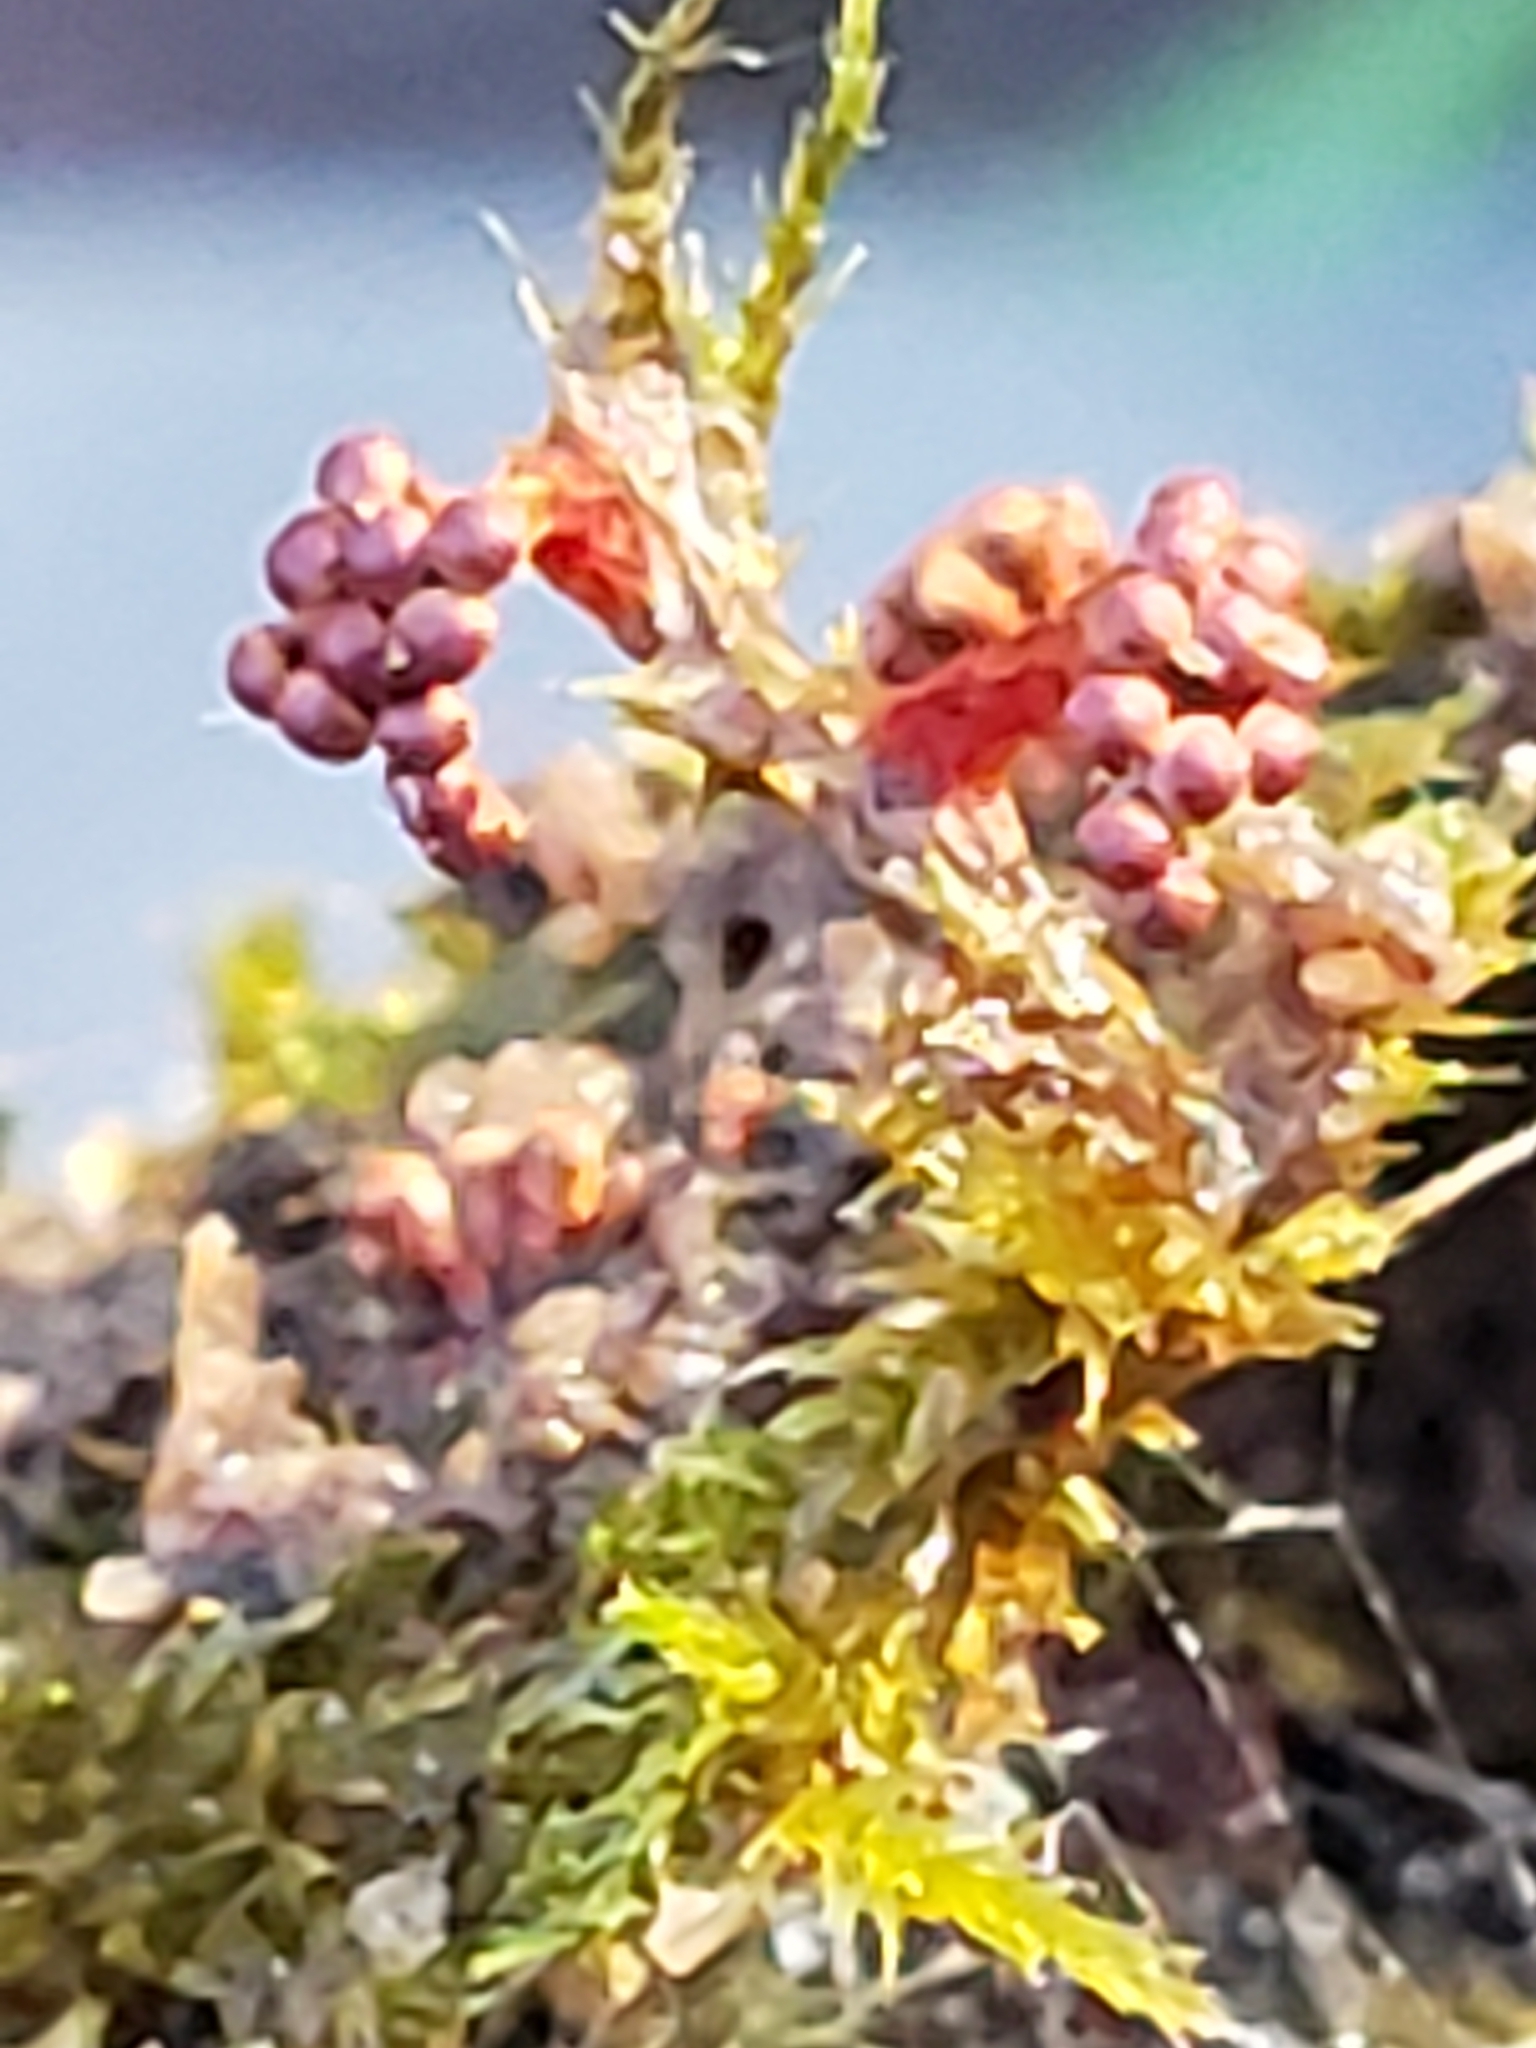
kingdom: Protozoa
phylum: Mycetozoa
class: Myxomycetes
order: Trichiales
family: Trichiaceae
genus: Metatrichia
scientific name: Metatrichia vesparia
